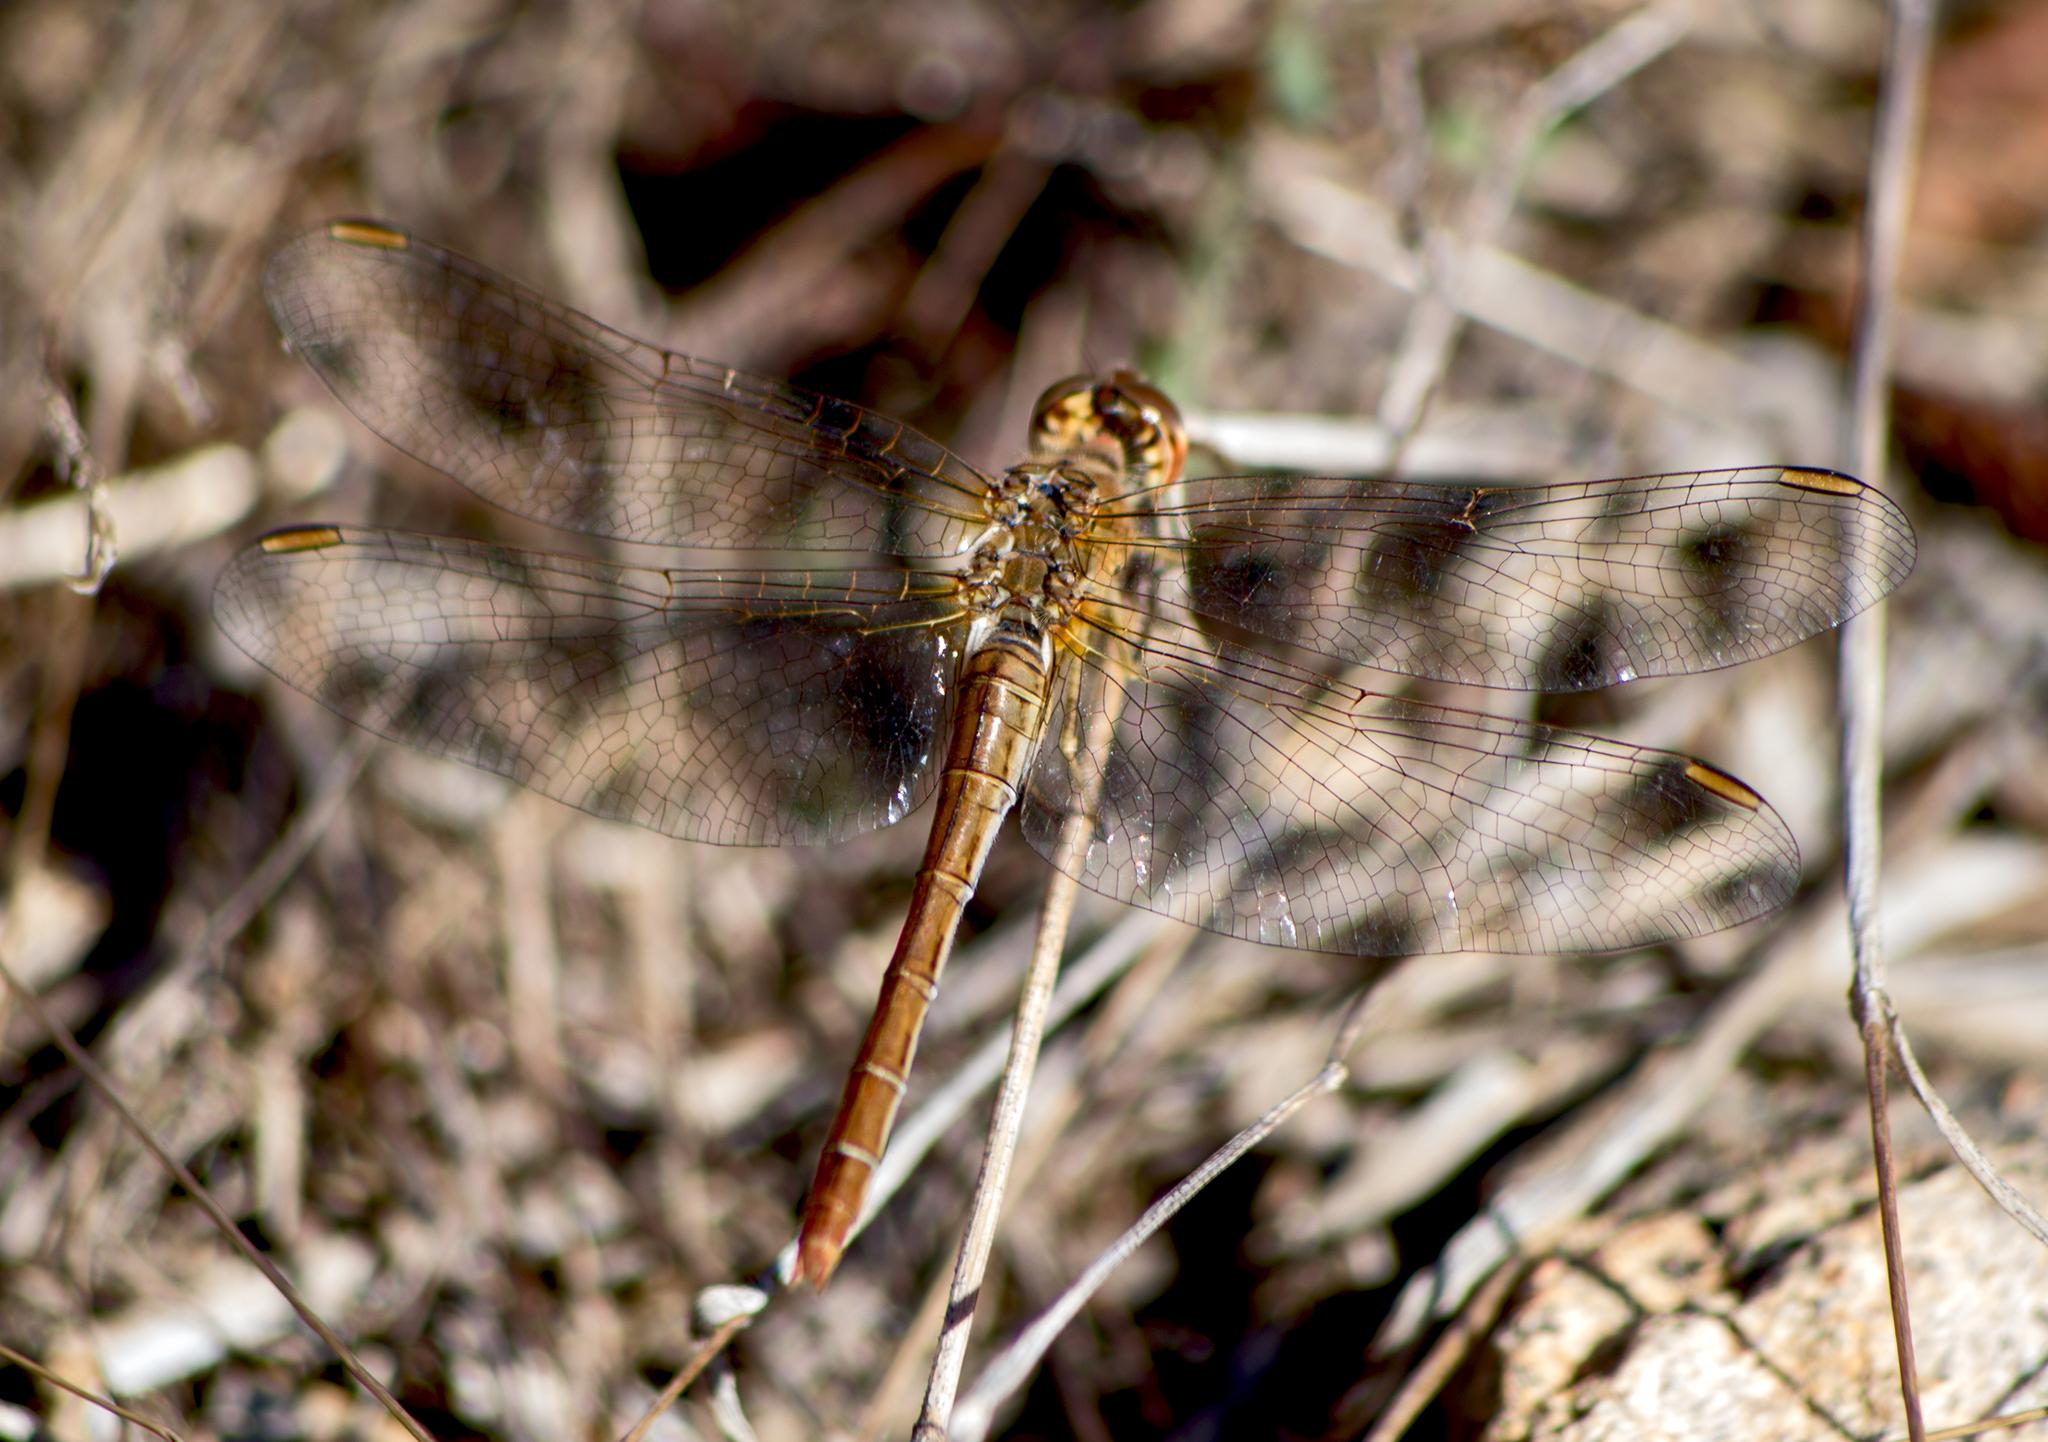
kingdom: Animalia
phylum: Arthropoda
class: Insecta
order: Odonata
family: Libellulidae
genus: Sympetrum
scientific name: Sympetrum meridionale
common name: Southern darter
